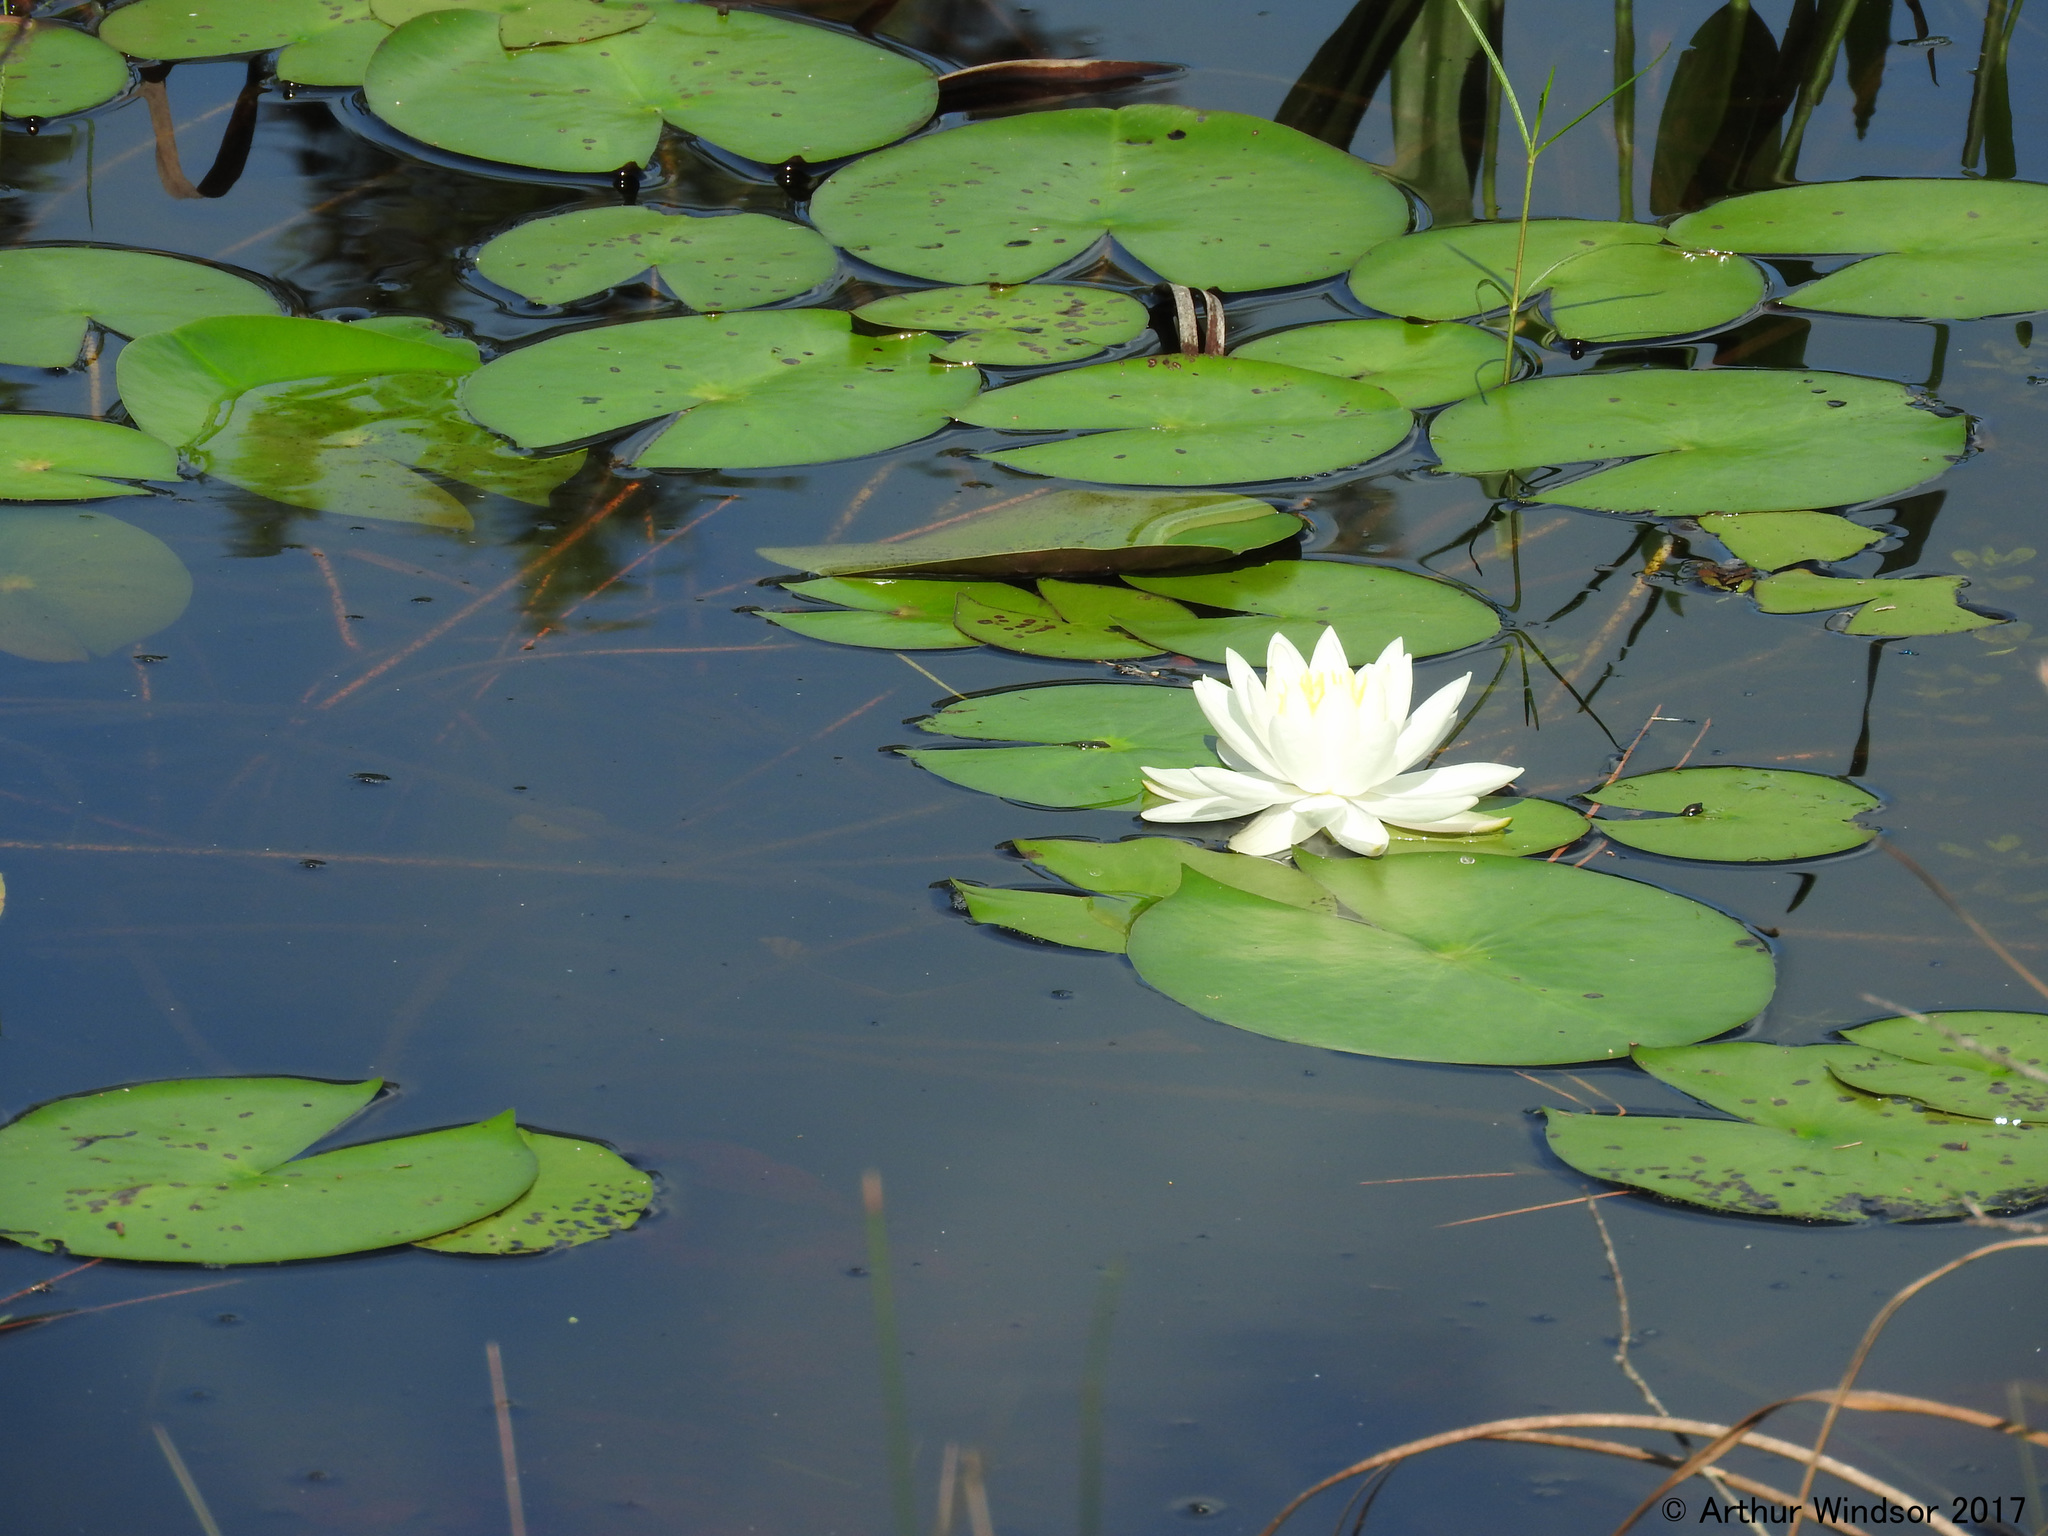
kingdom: Plantae
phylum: Tracheophyta
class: Magnoliopsida
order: Nymphaeales
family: Nymphaeaceae
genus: Nymphaea
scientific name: Nymphaea odorata
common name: Fragrant water-lily
